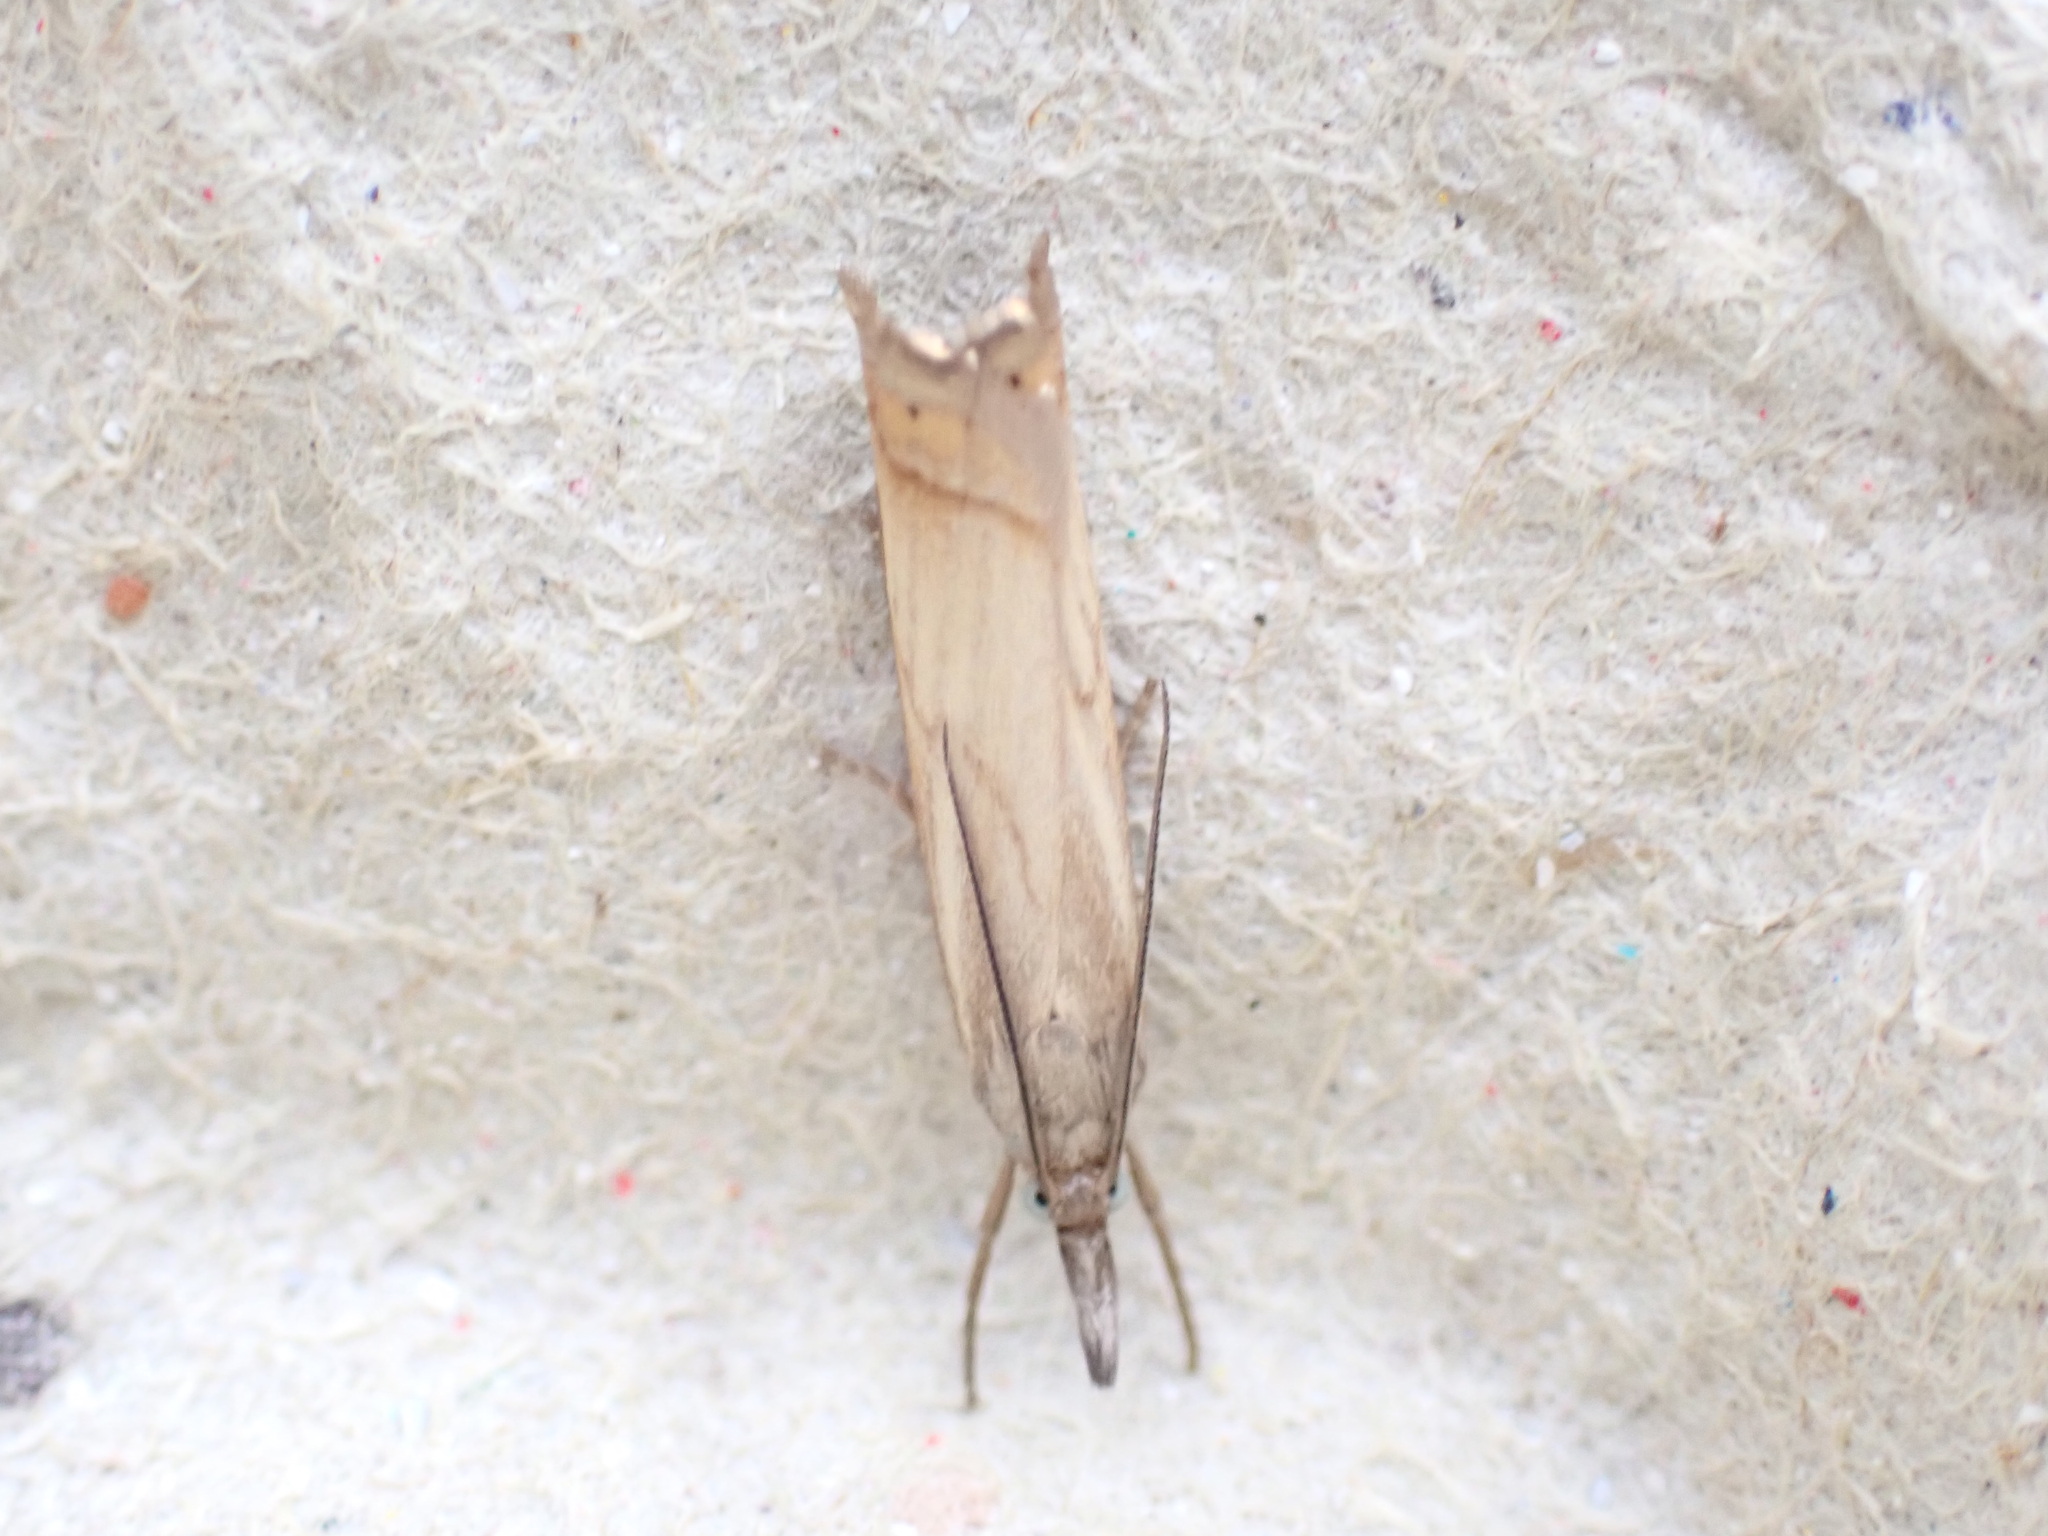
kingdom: Animalia
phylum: Arthropoda
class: Insecta
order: Lepidoptera
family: Crambidae
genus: Chrysoteuchia
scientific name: Chrysoteuchia culmella
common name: Garden grass-veneer
